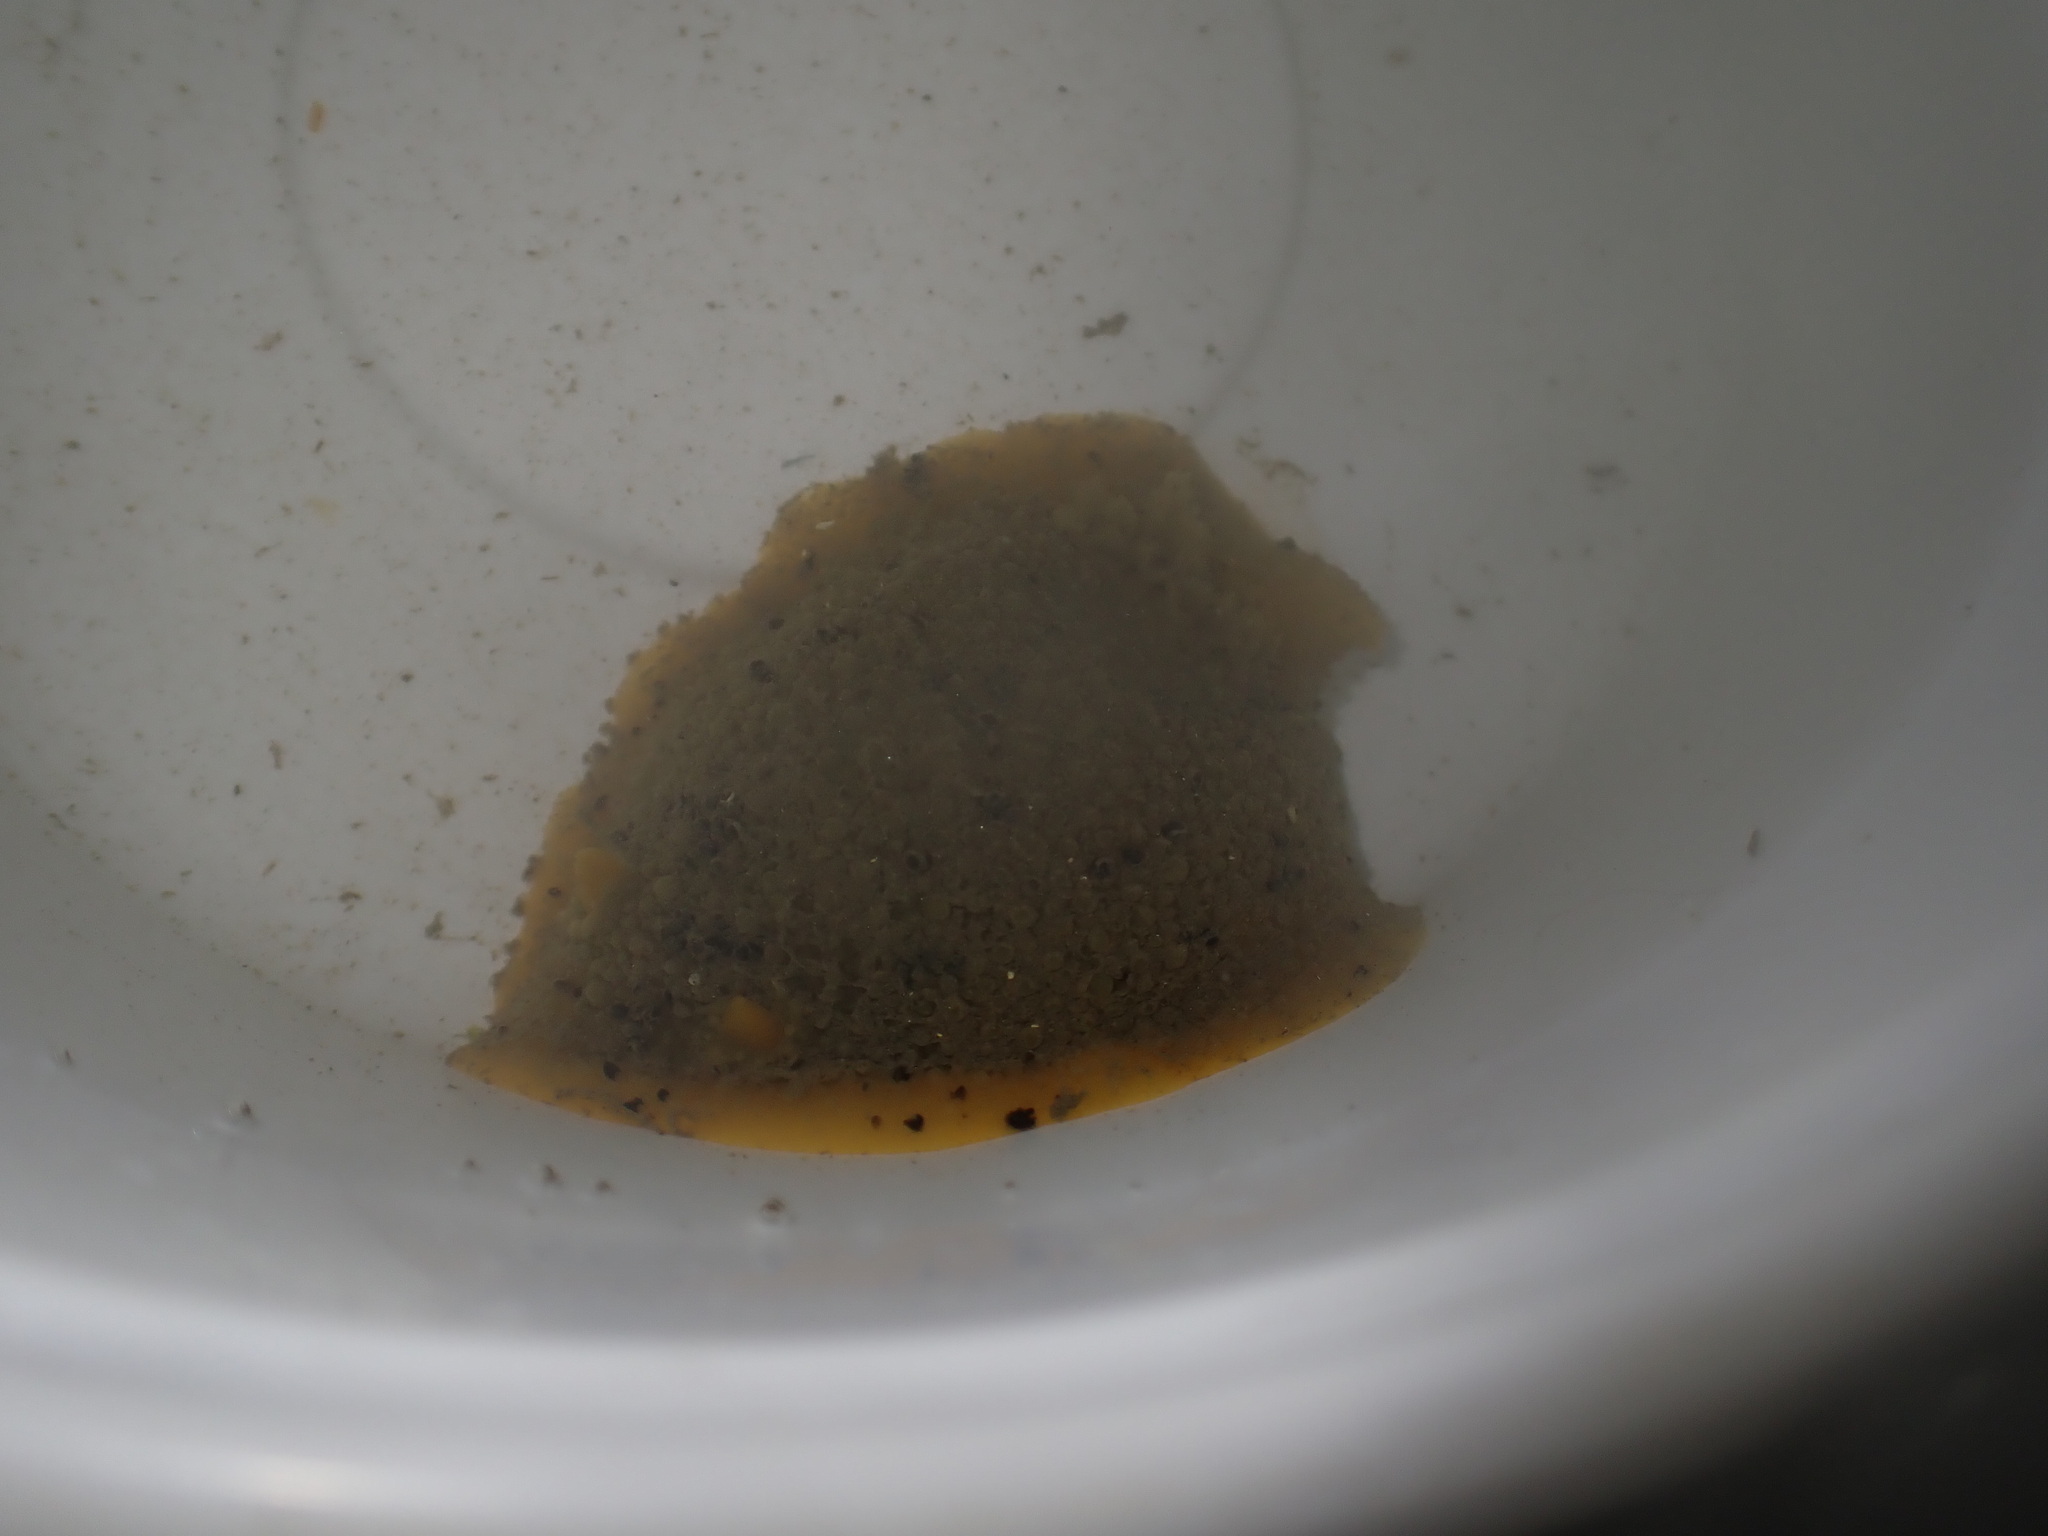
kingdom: Animalia
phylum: Mollusca
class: Gastropoda
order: Nudibranchia
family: Dorididae
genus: Doris
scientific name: Doris montereyensis
